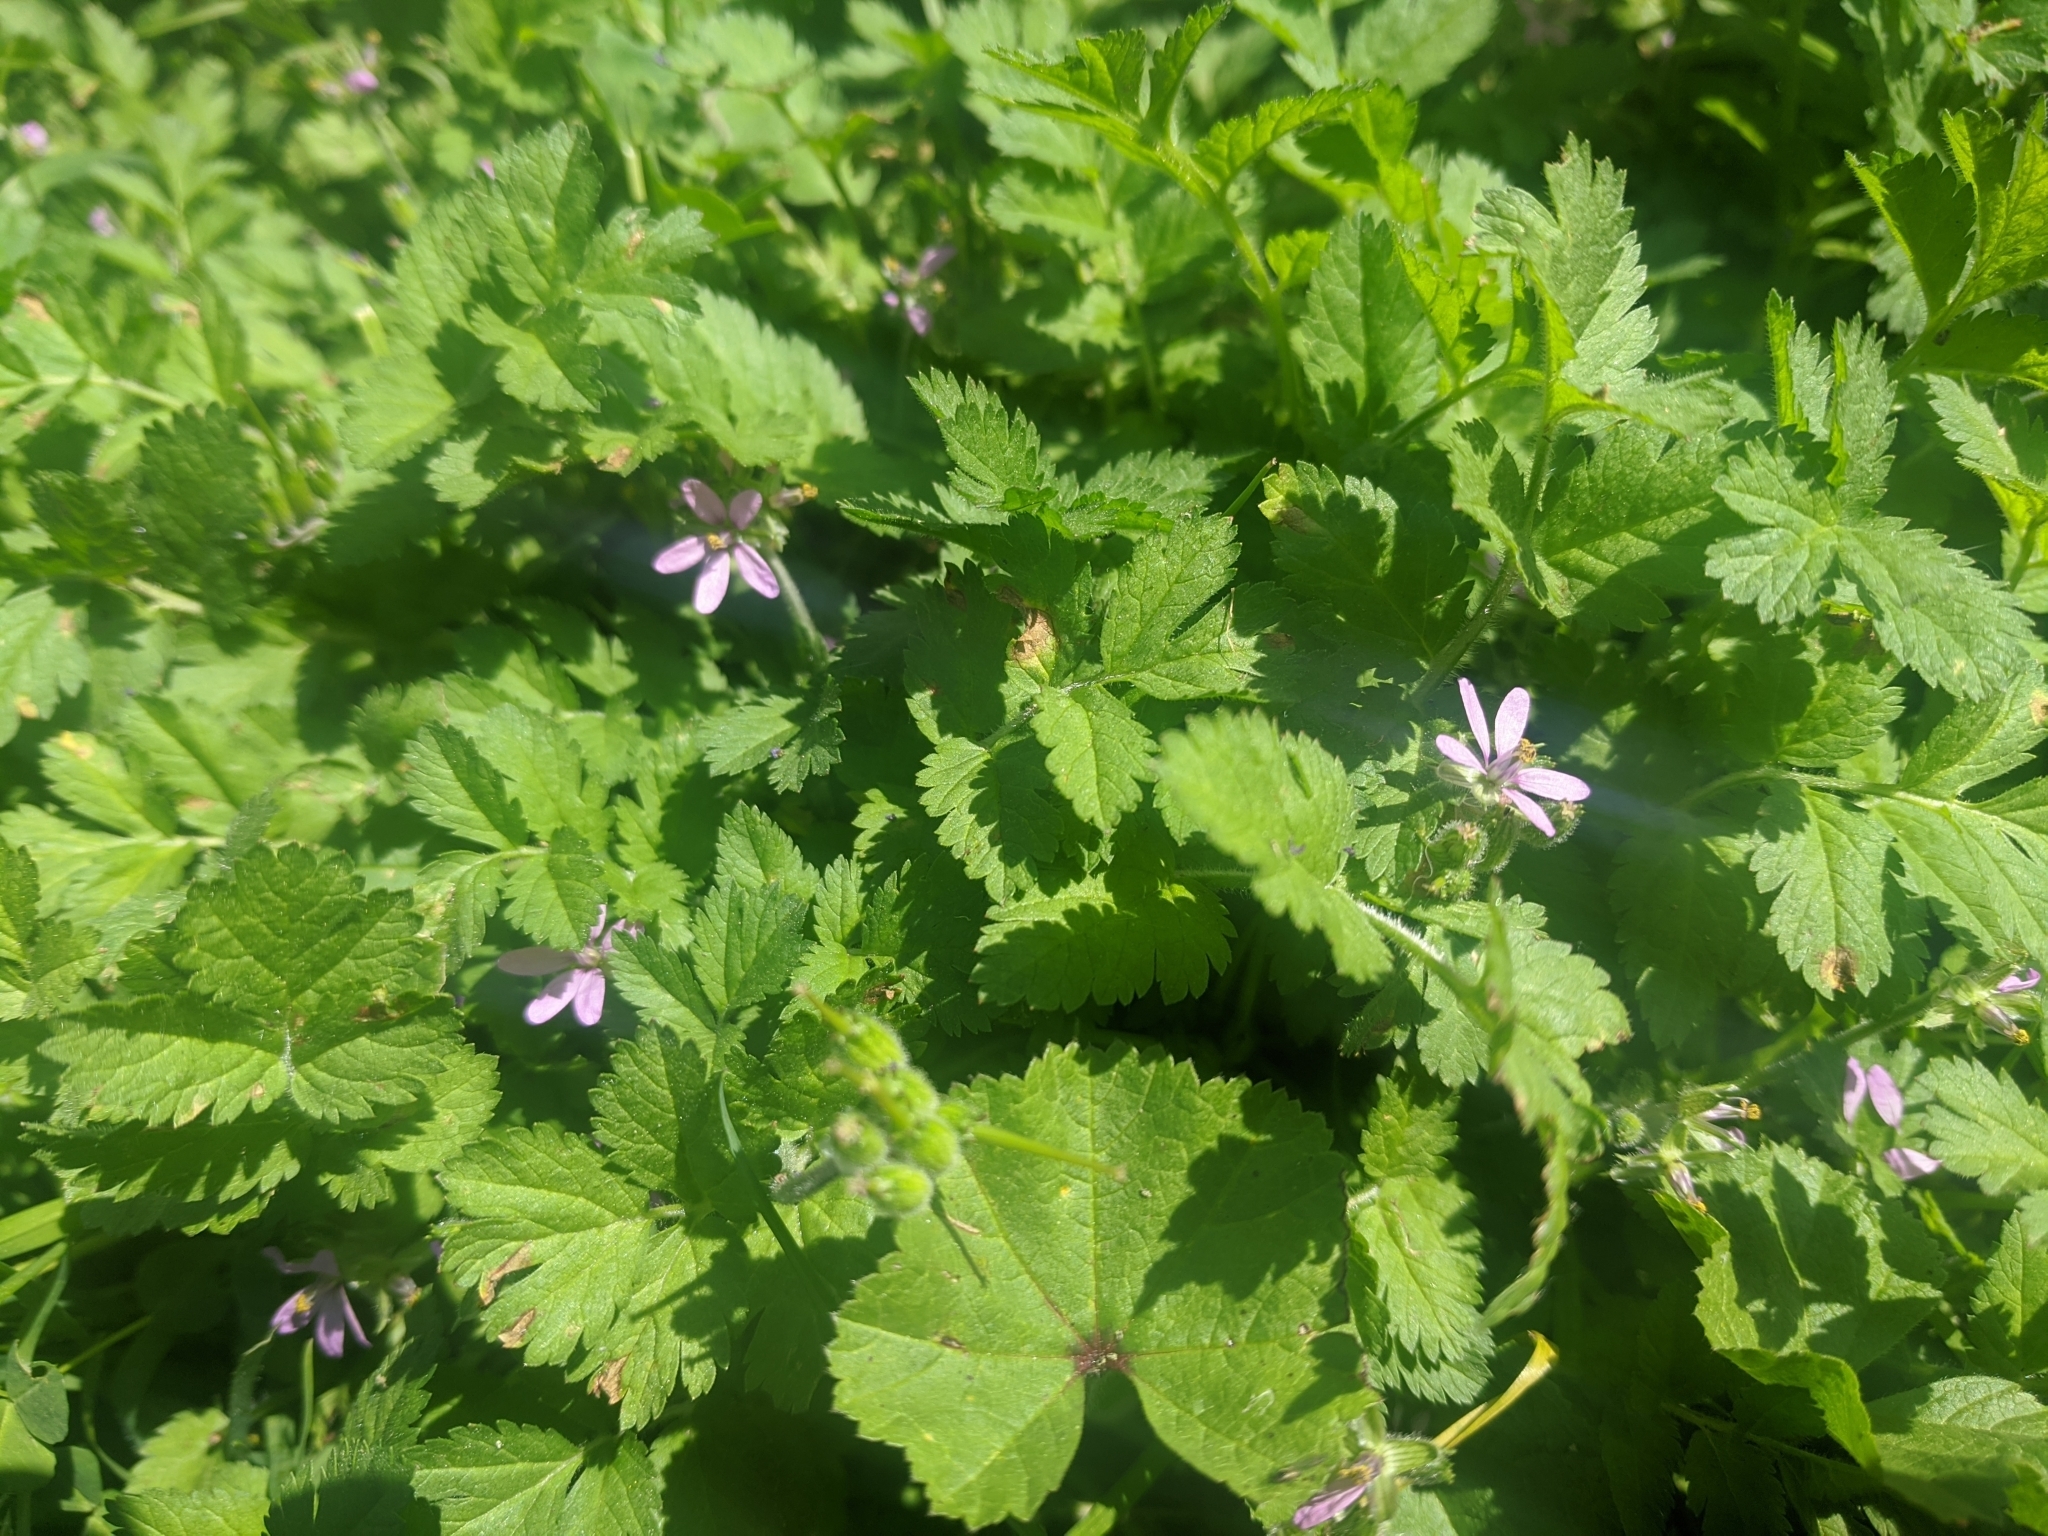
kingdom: Plantae
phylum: Tracheophyta
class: Magnoliopsida
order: Geraniales
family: Geraniaceae
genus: Erodium
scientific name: Erodium moschatum
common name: Musk stork's-bill
